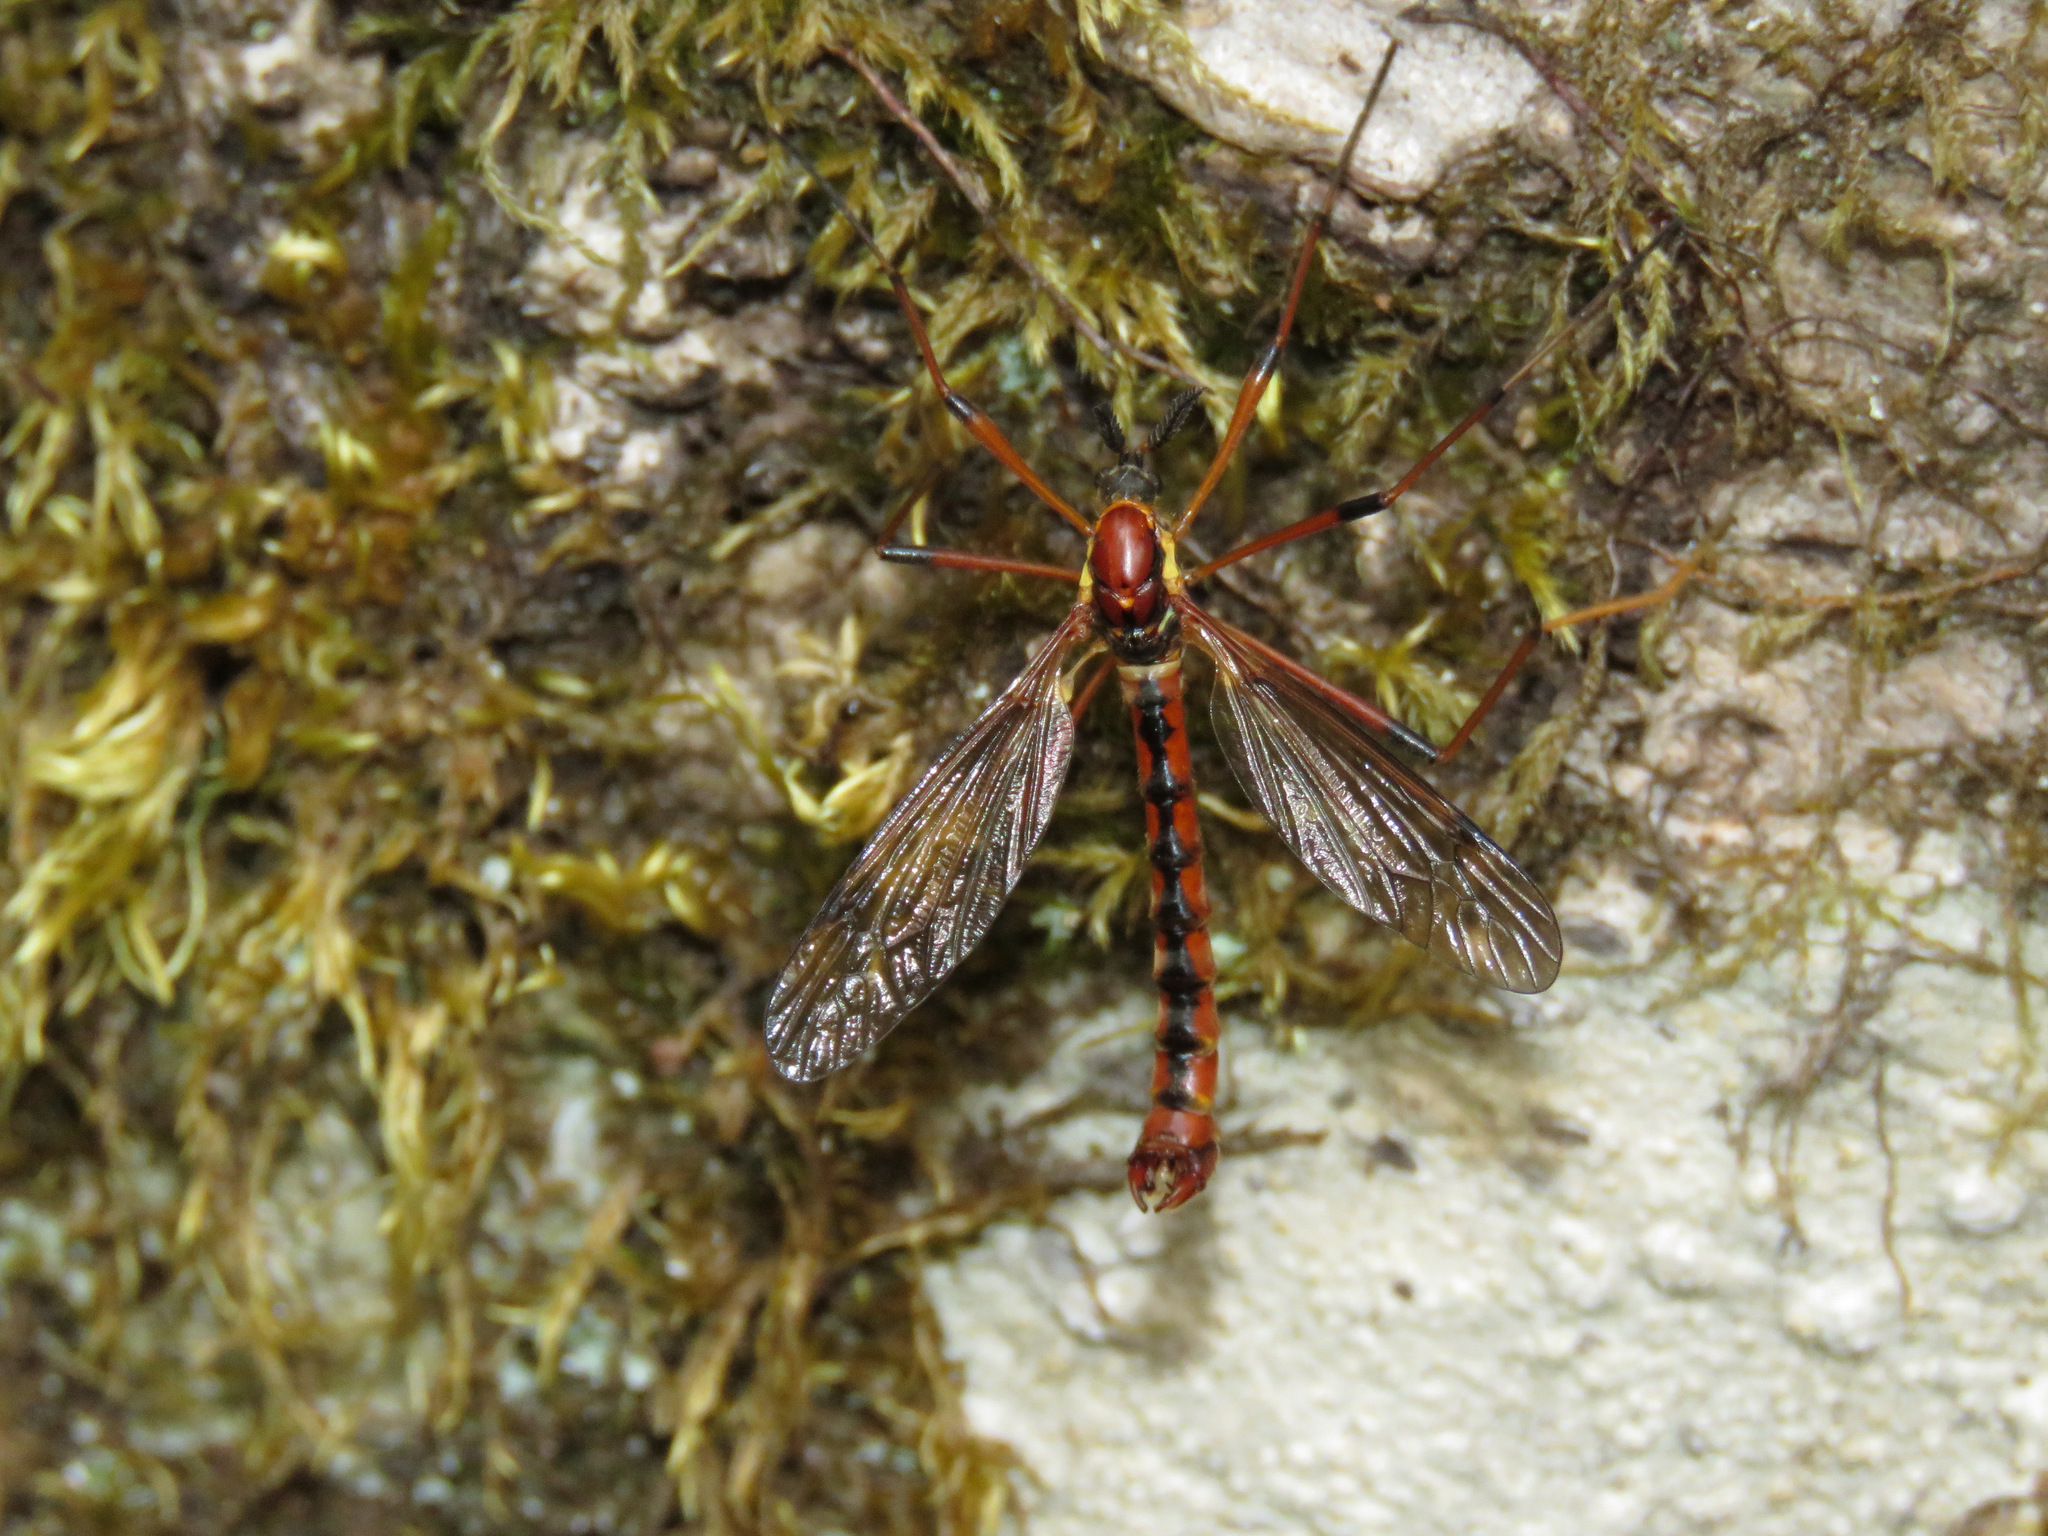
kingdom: Animalia
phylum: Arthropoda
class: Insecta
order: Diptera
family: Tipulidae
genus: Phoroctenia
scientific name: Phoroctenia vittata
